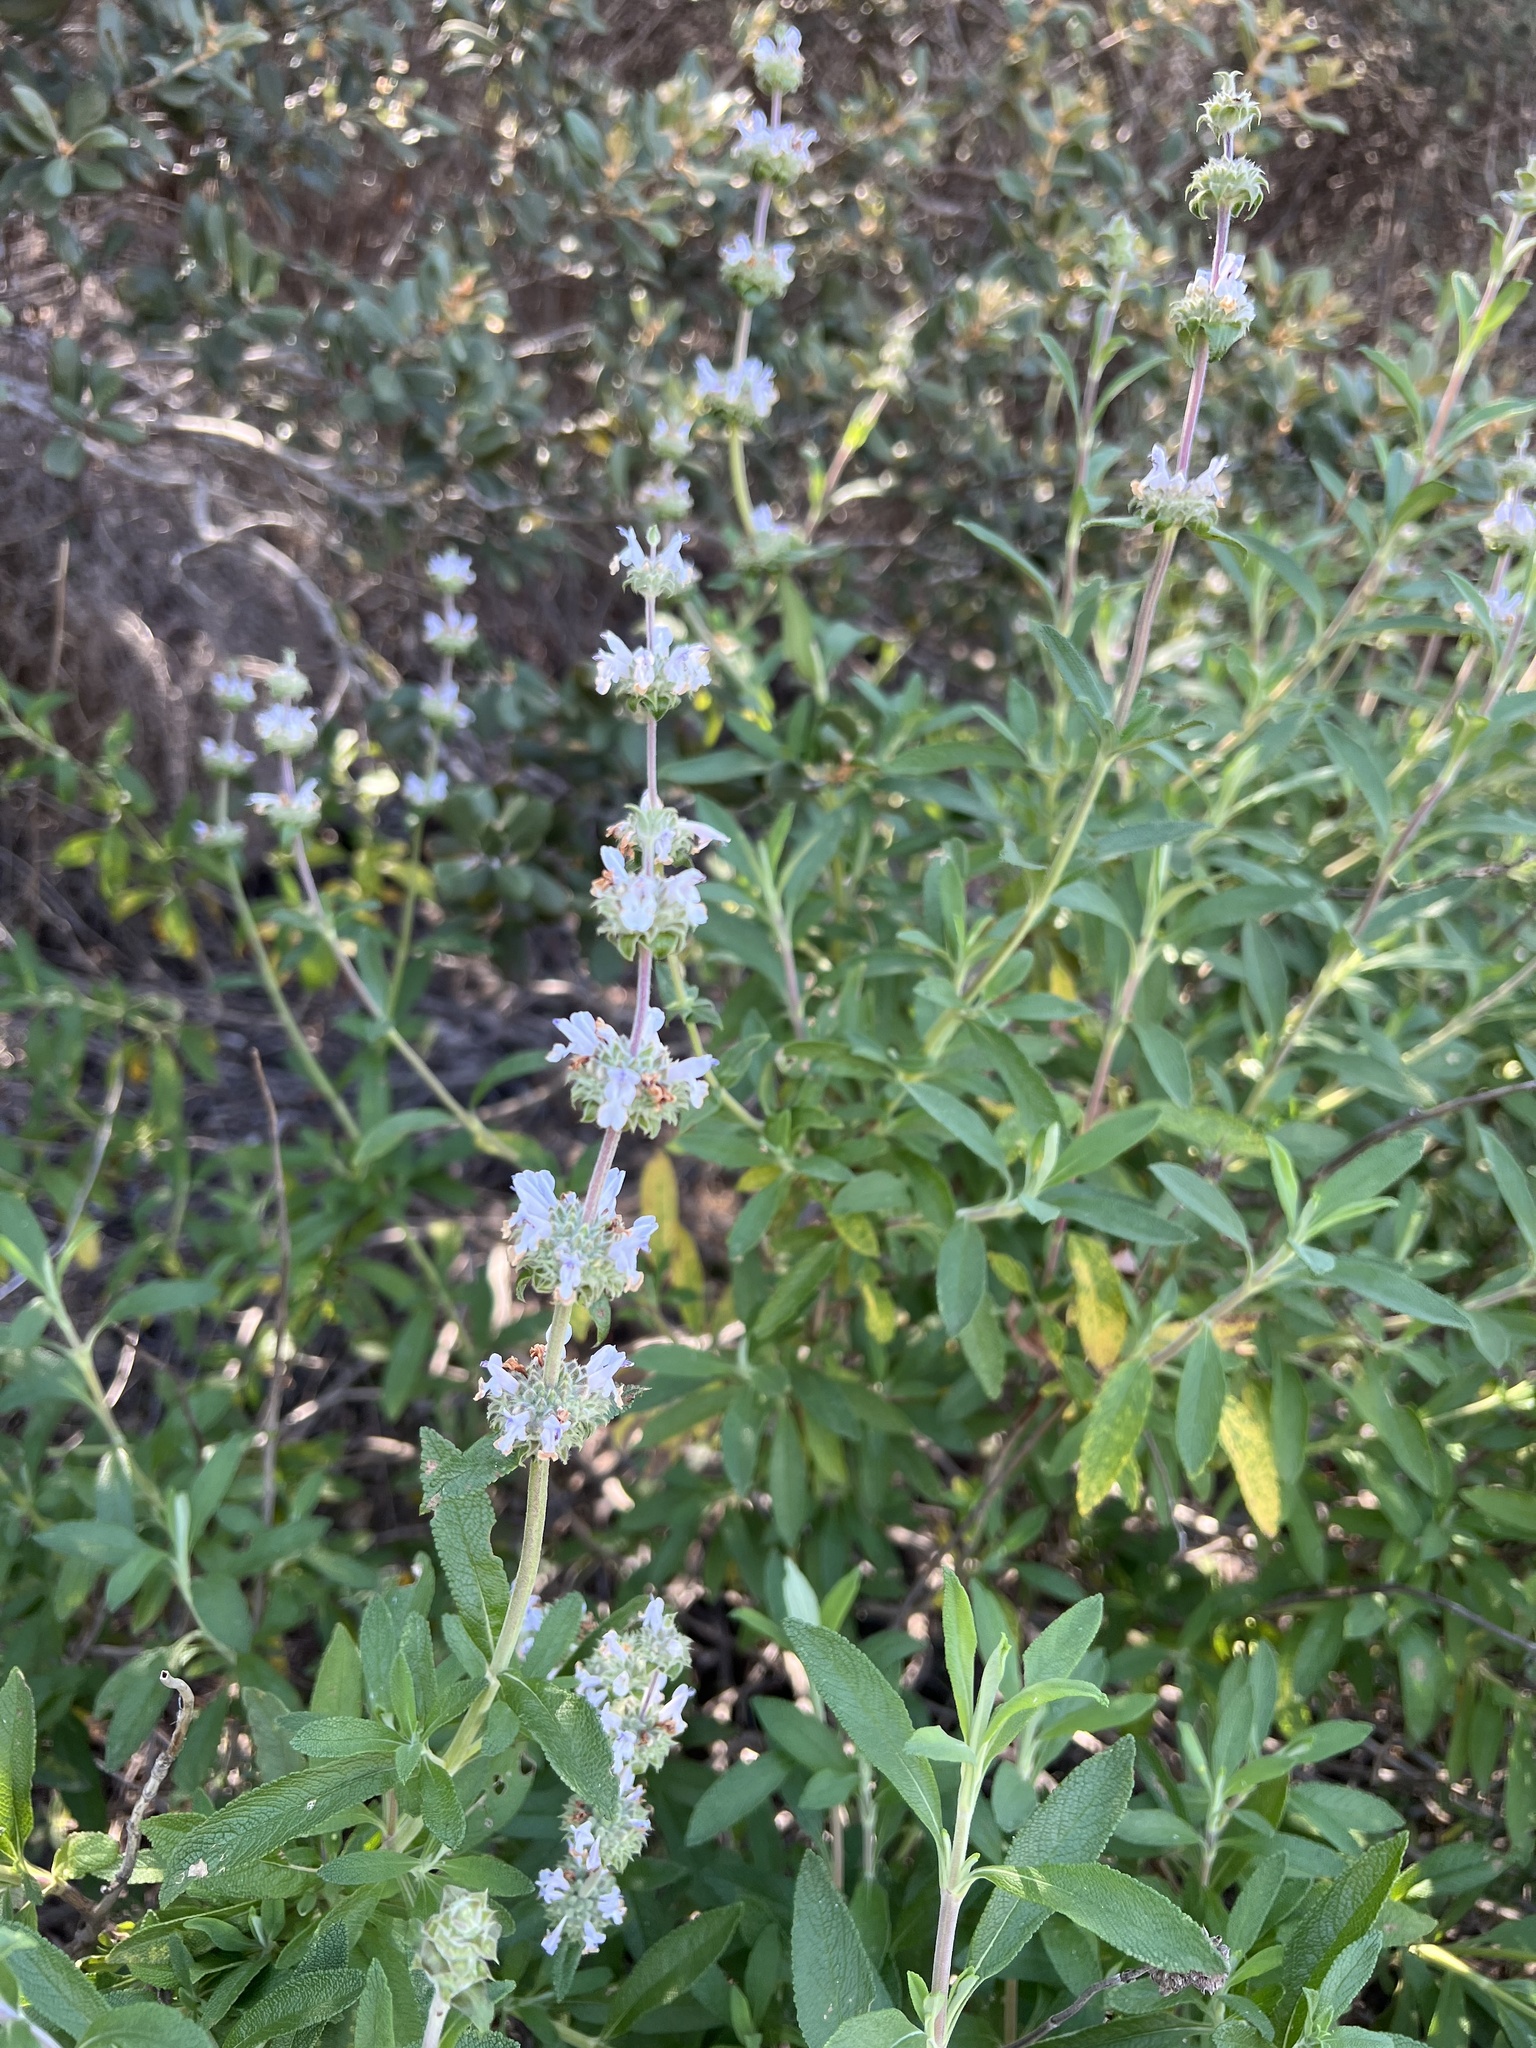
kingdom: Plantae
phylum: Tracheophyta
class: Magnoliopsida
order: Lamiales
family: Lamiaceae
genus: Salvia
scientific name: Salvia mellifera
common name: Black sage
